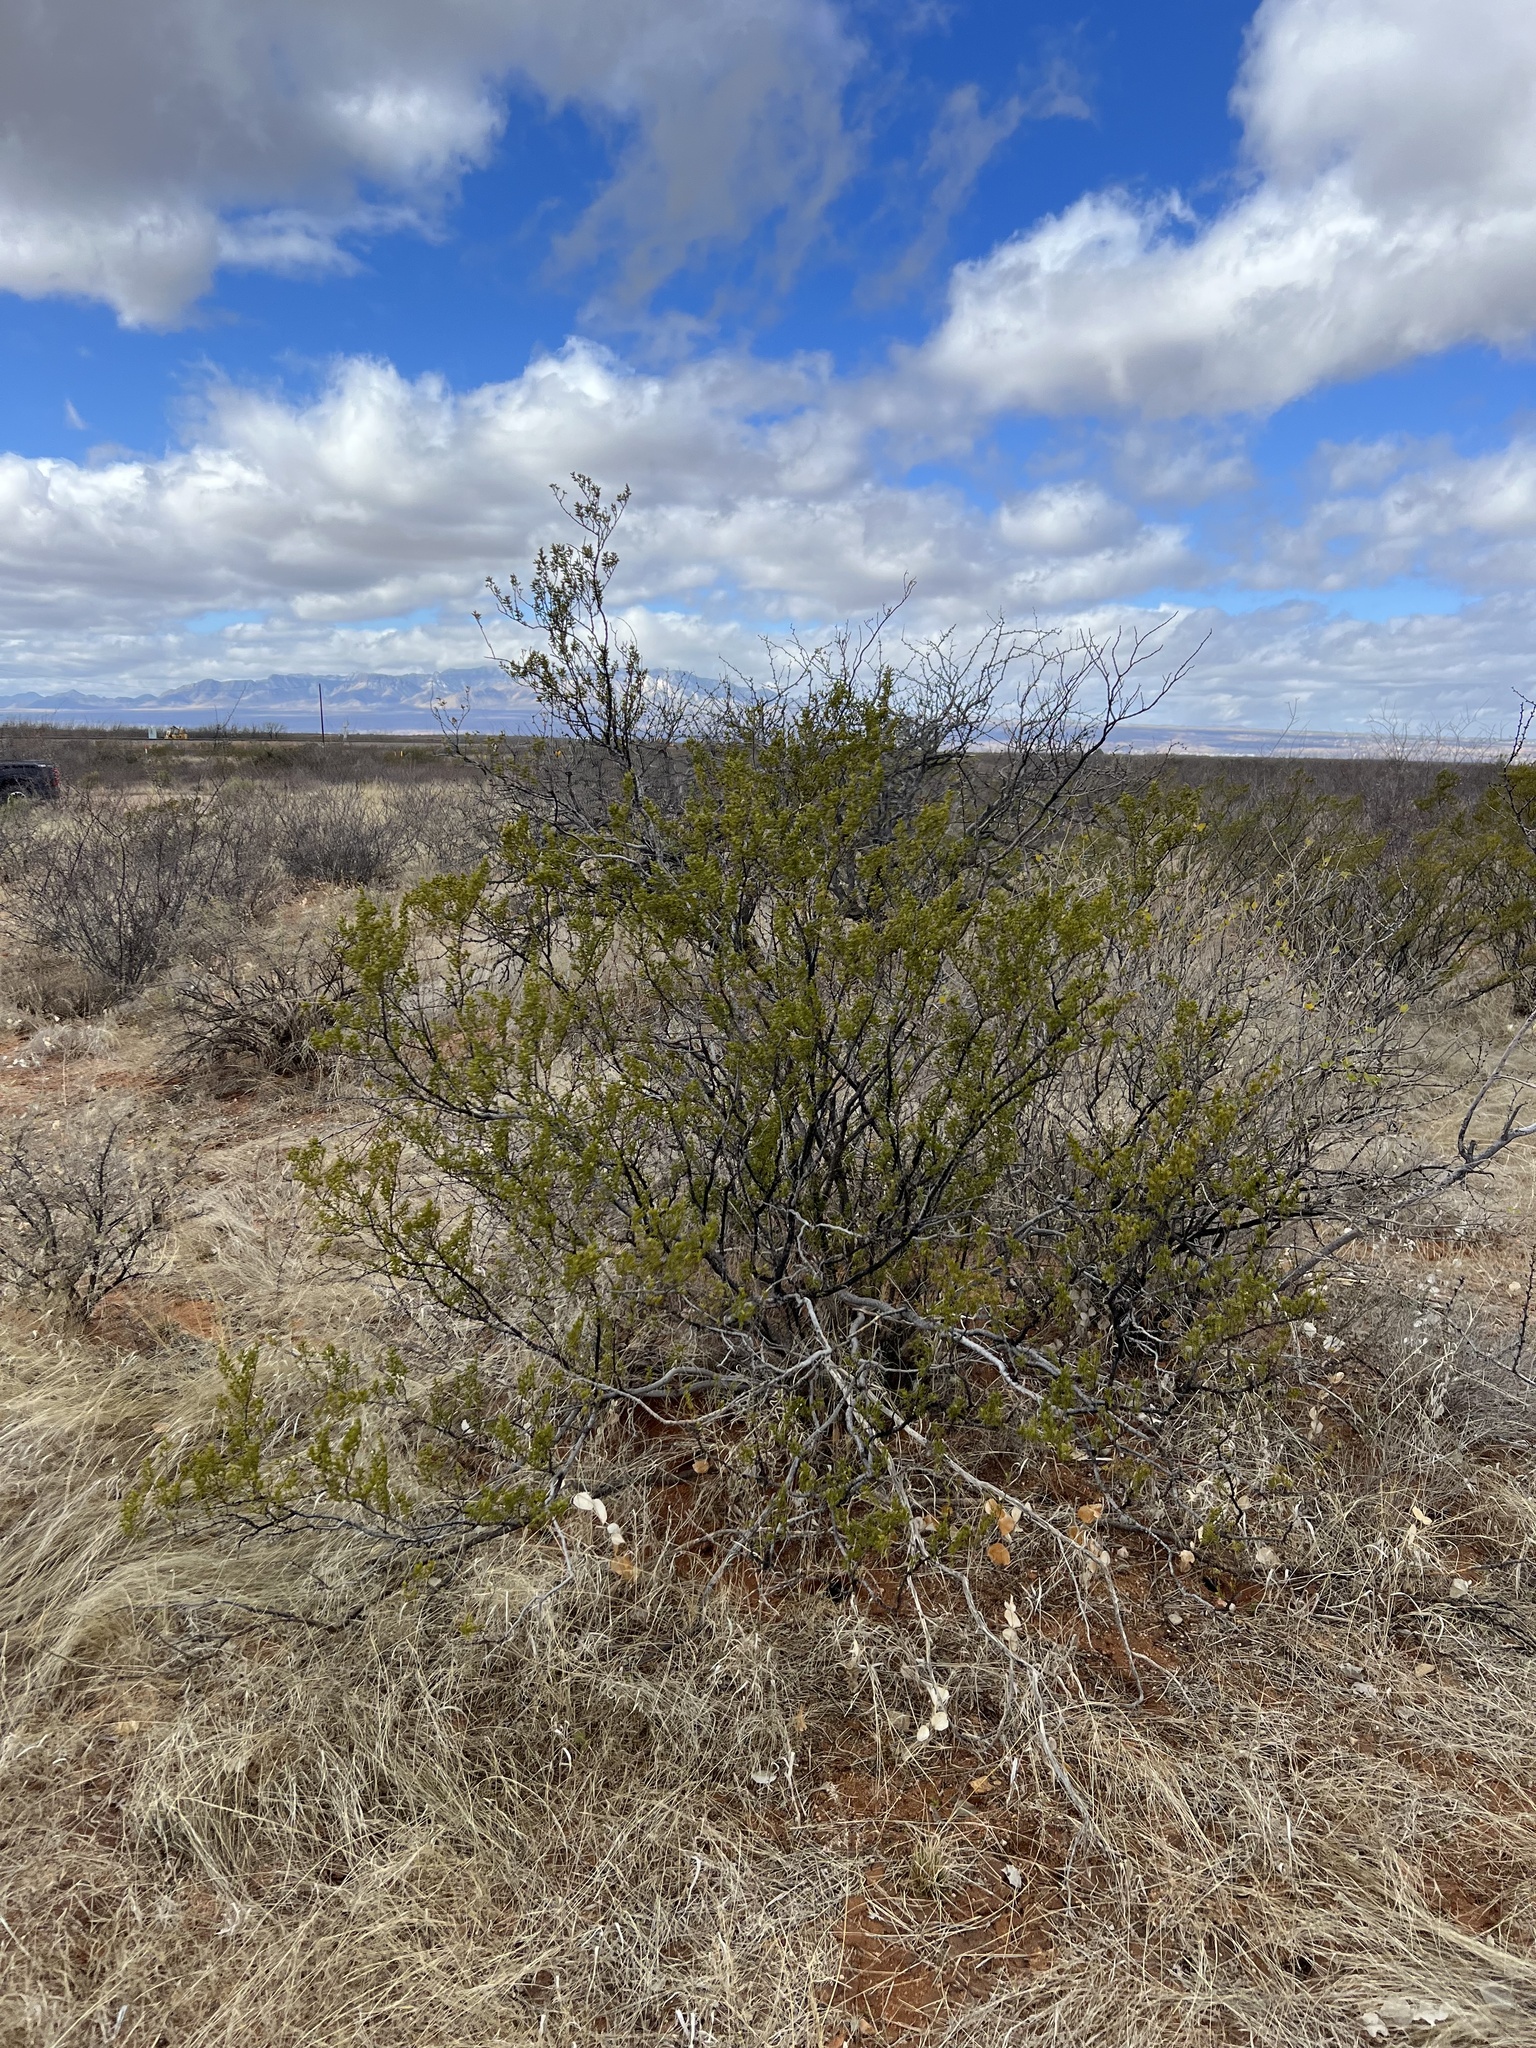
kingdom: Plantae
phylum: Tracheophyta
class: Magnoliopsida
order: Zygophyllales
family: Zygophyllaceae
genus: Larrea
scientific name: Larrea tridentata
